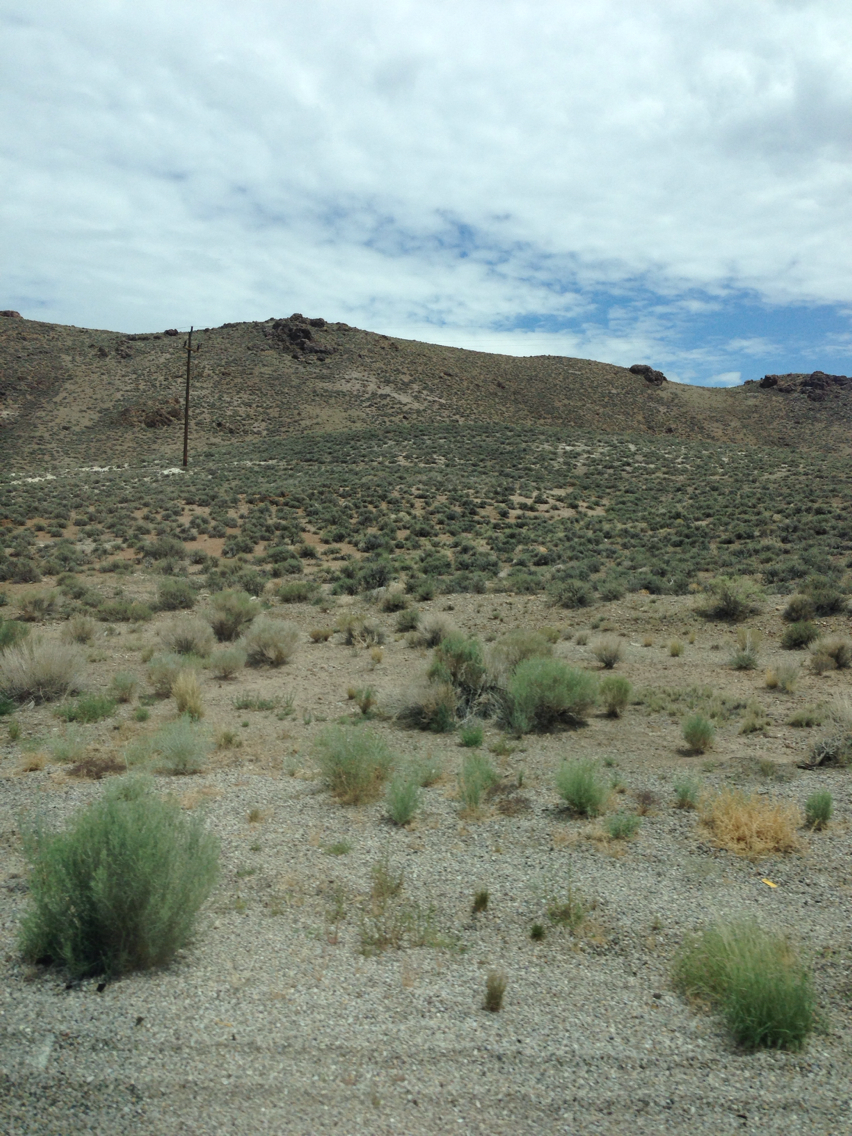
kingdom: Plantae
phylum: Tracheophyta
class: Magnoliopsida
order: Asterales
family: Asteraceae
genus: Ericameria
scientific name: Ericameria nauseosa
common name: Rubber rabbitbrush
